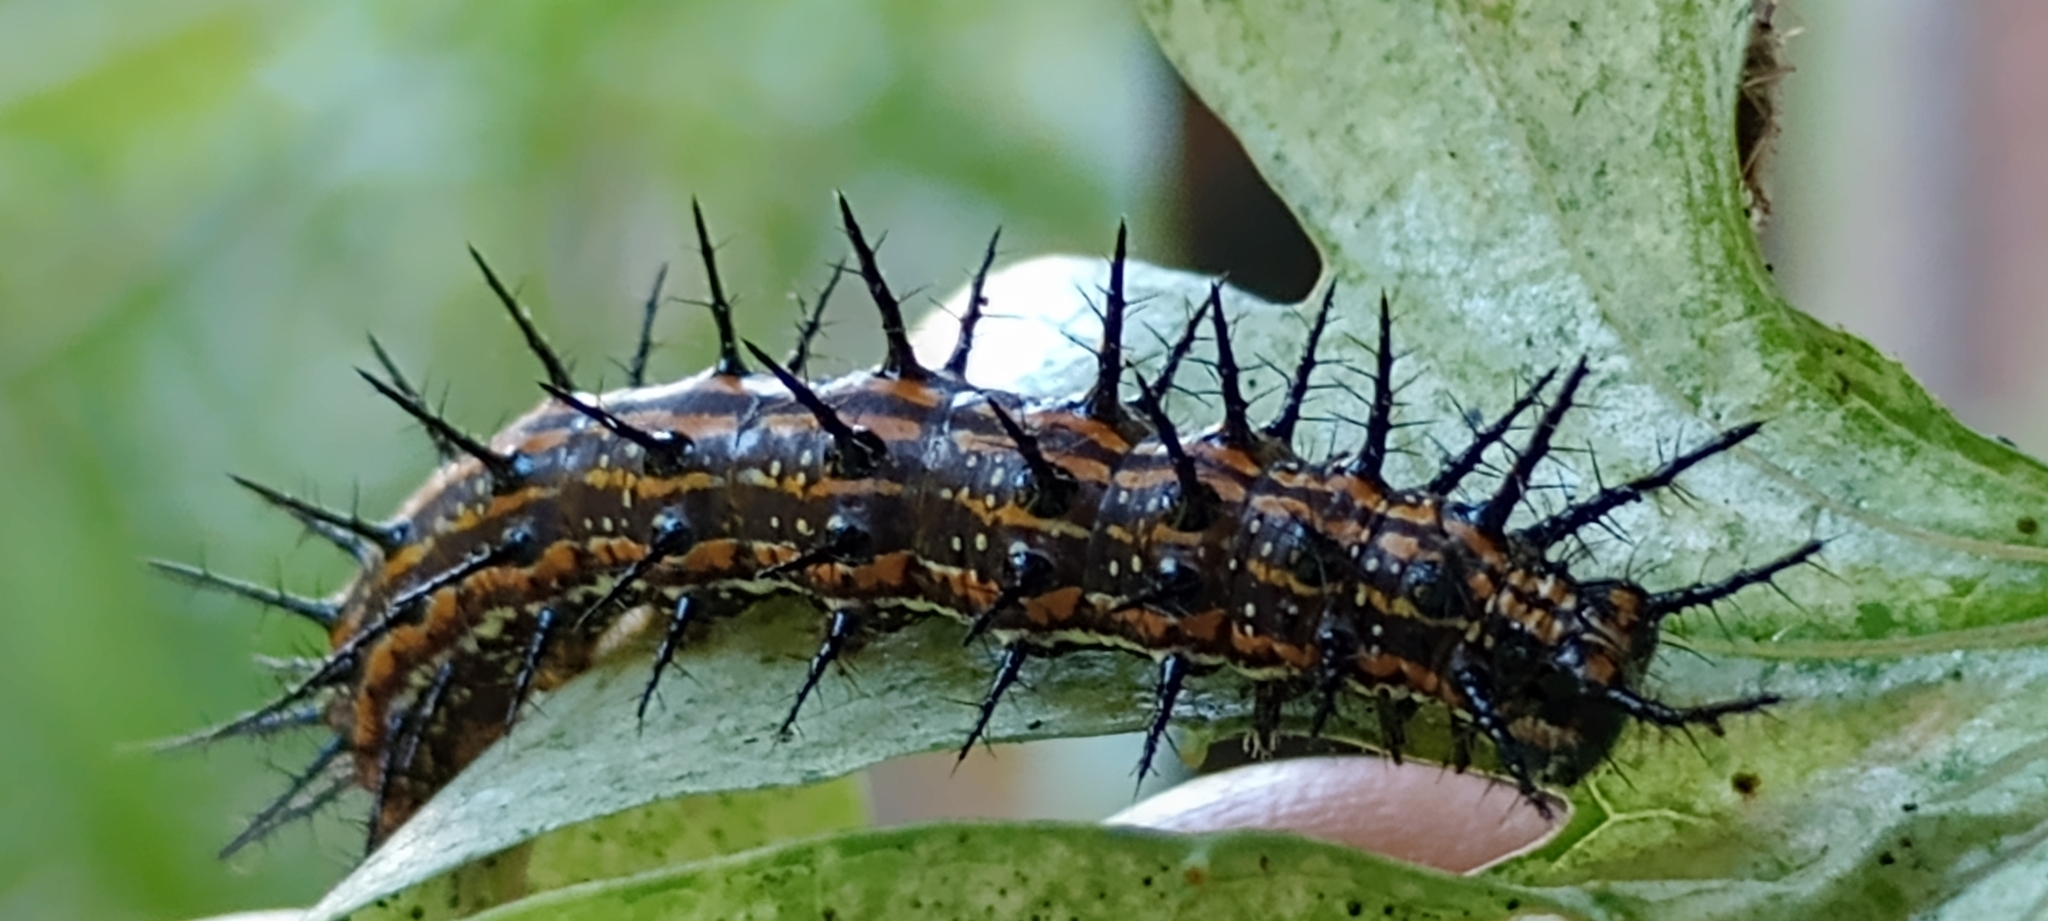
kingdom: Animalia
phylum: Arthropoda
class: Insecta
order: Lepidoptera
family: Nymphalidae
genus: Dione
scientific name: Dione vanillae
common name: Gulf fritillary
